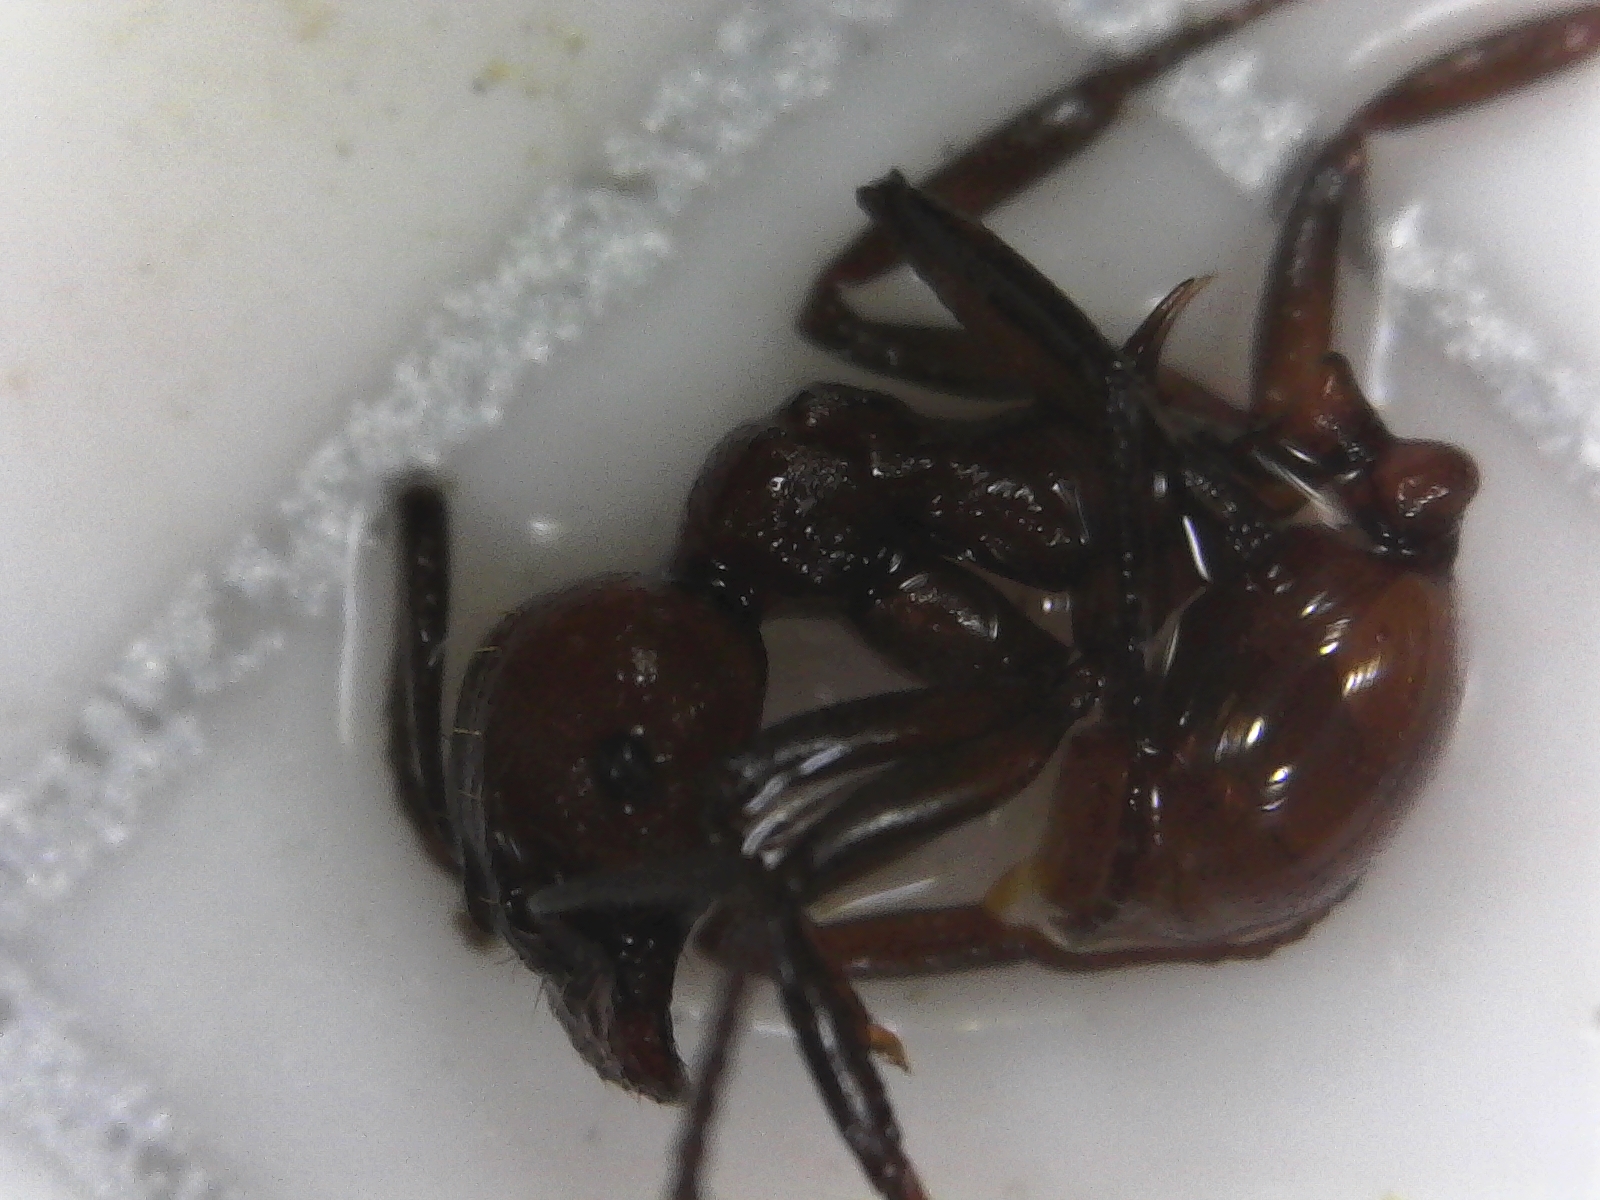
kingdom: Animalia
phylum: Arthropoda
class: Insecta
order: Hymenoptera
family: Formicidae
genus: Aphaenogaster
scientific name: Aphaenogaster tennesseensis
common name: Tennessee thread-waisted ant
